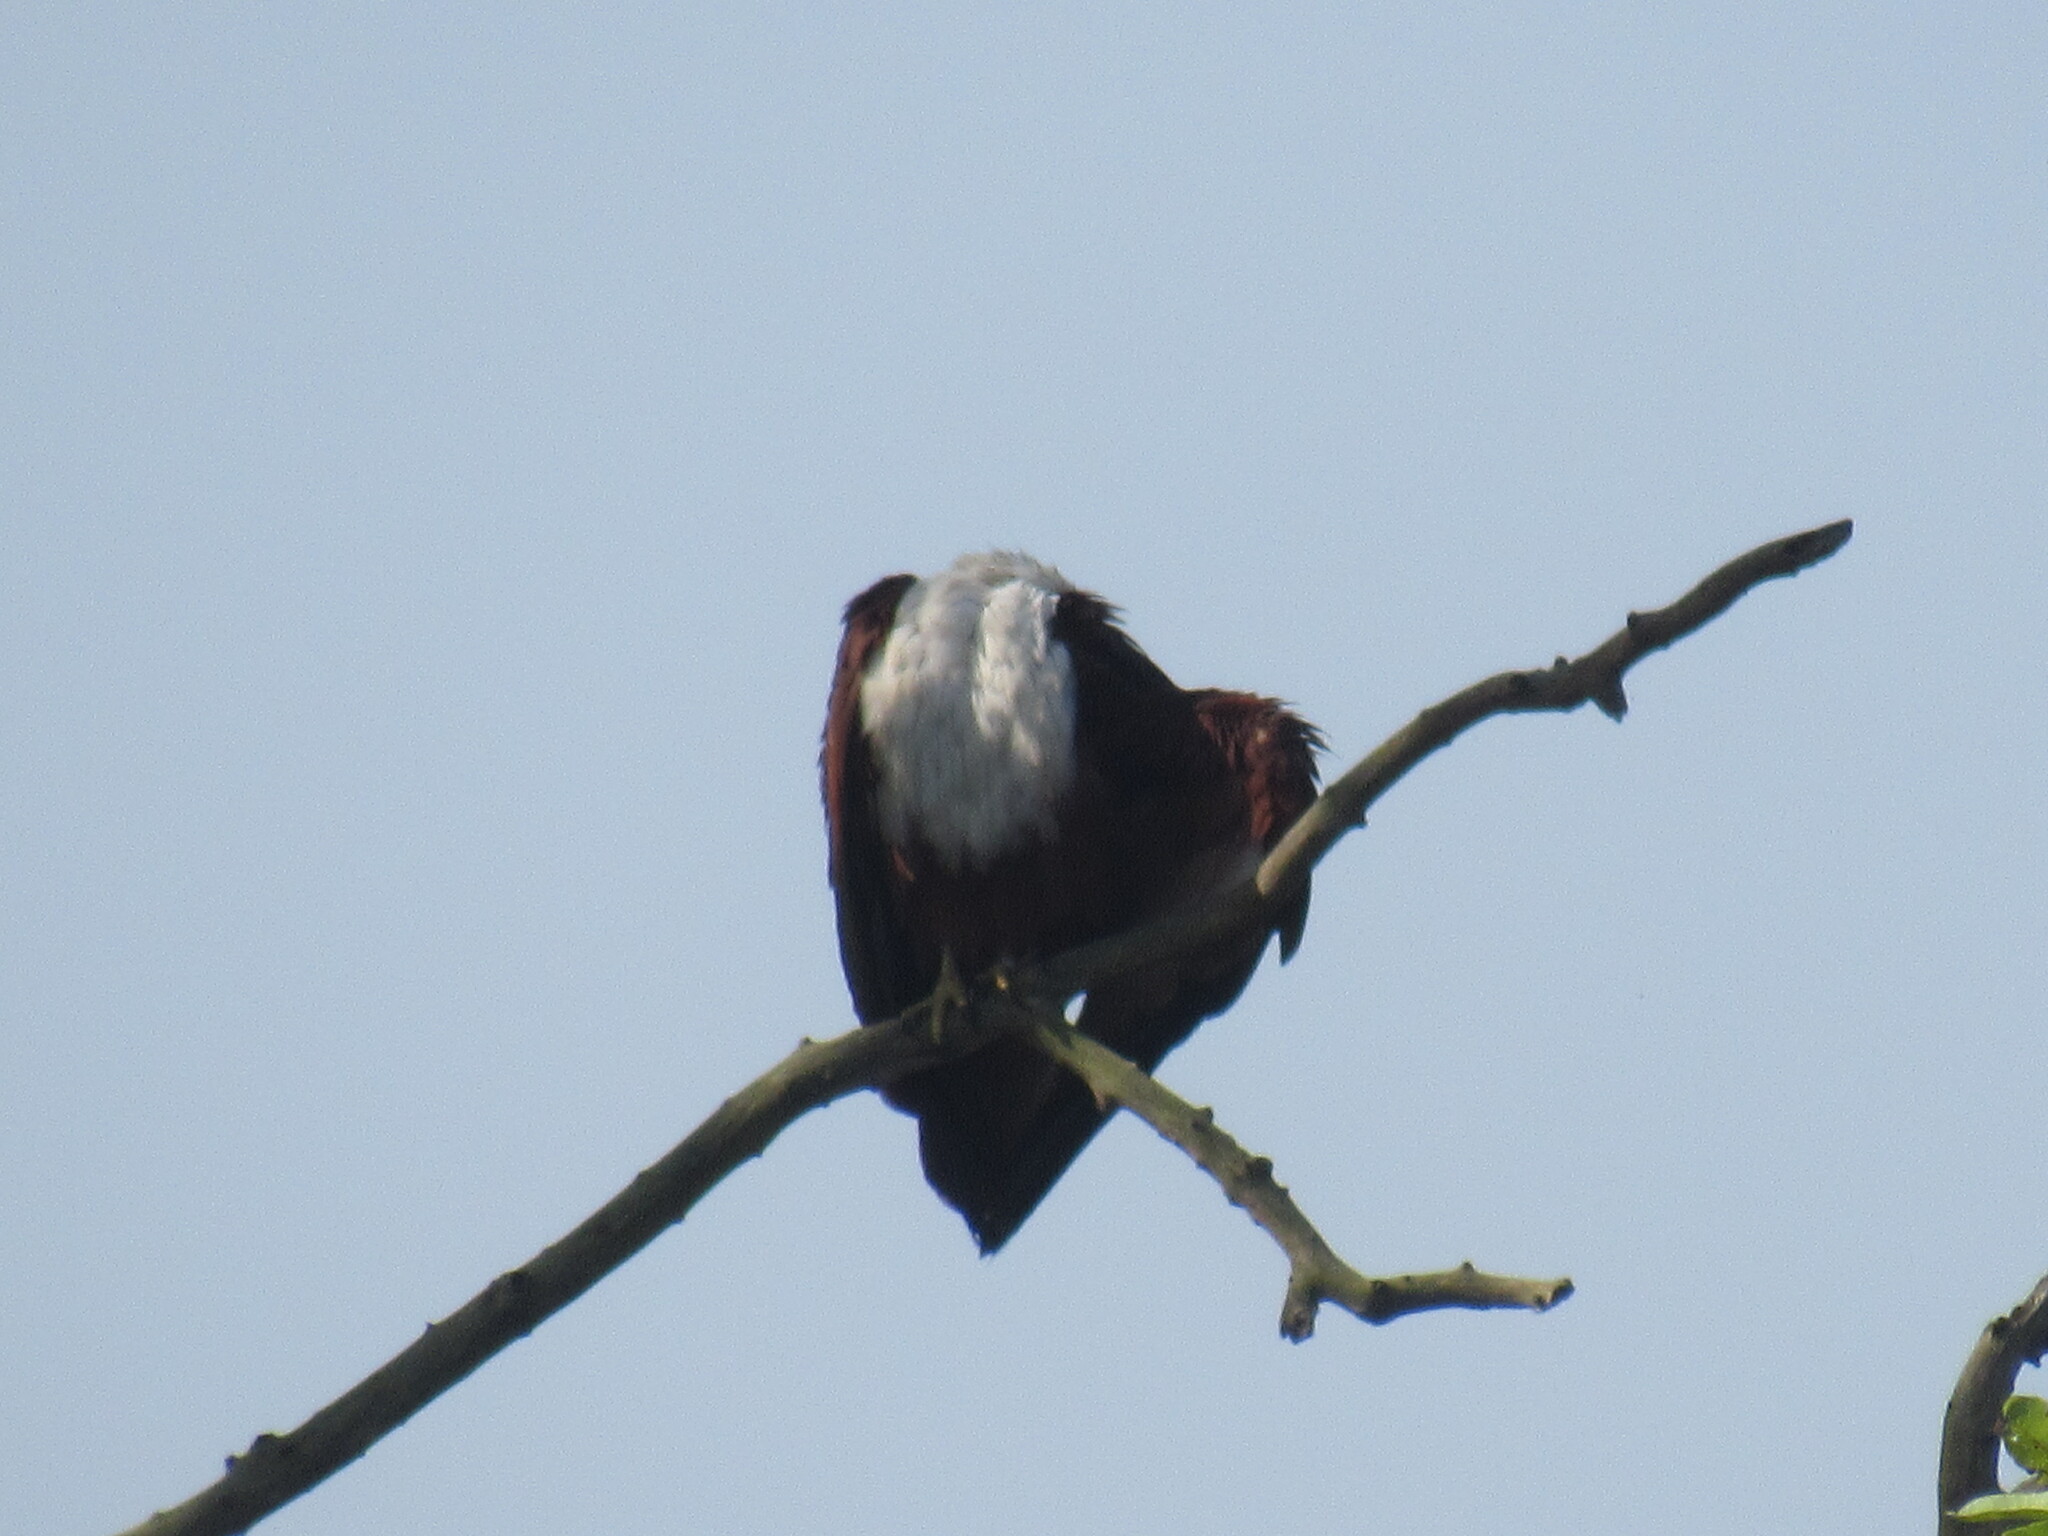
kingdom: Animalia
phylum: Chordata
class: Aves
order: Accipitriformes
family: Accipitridae
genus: Haliastur
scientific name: Haliastur indus
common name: Brahminy kite
